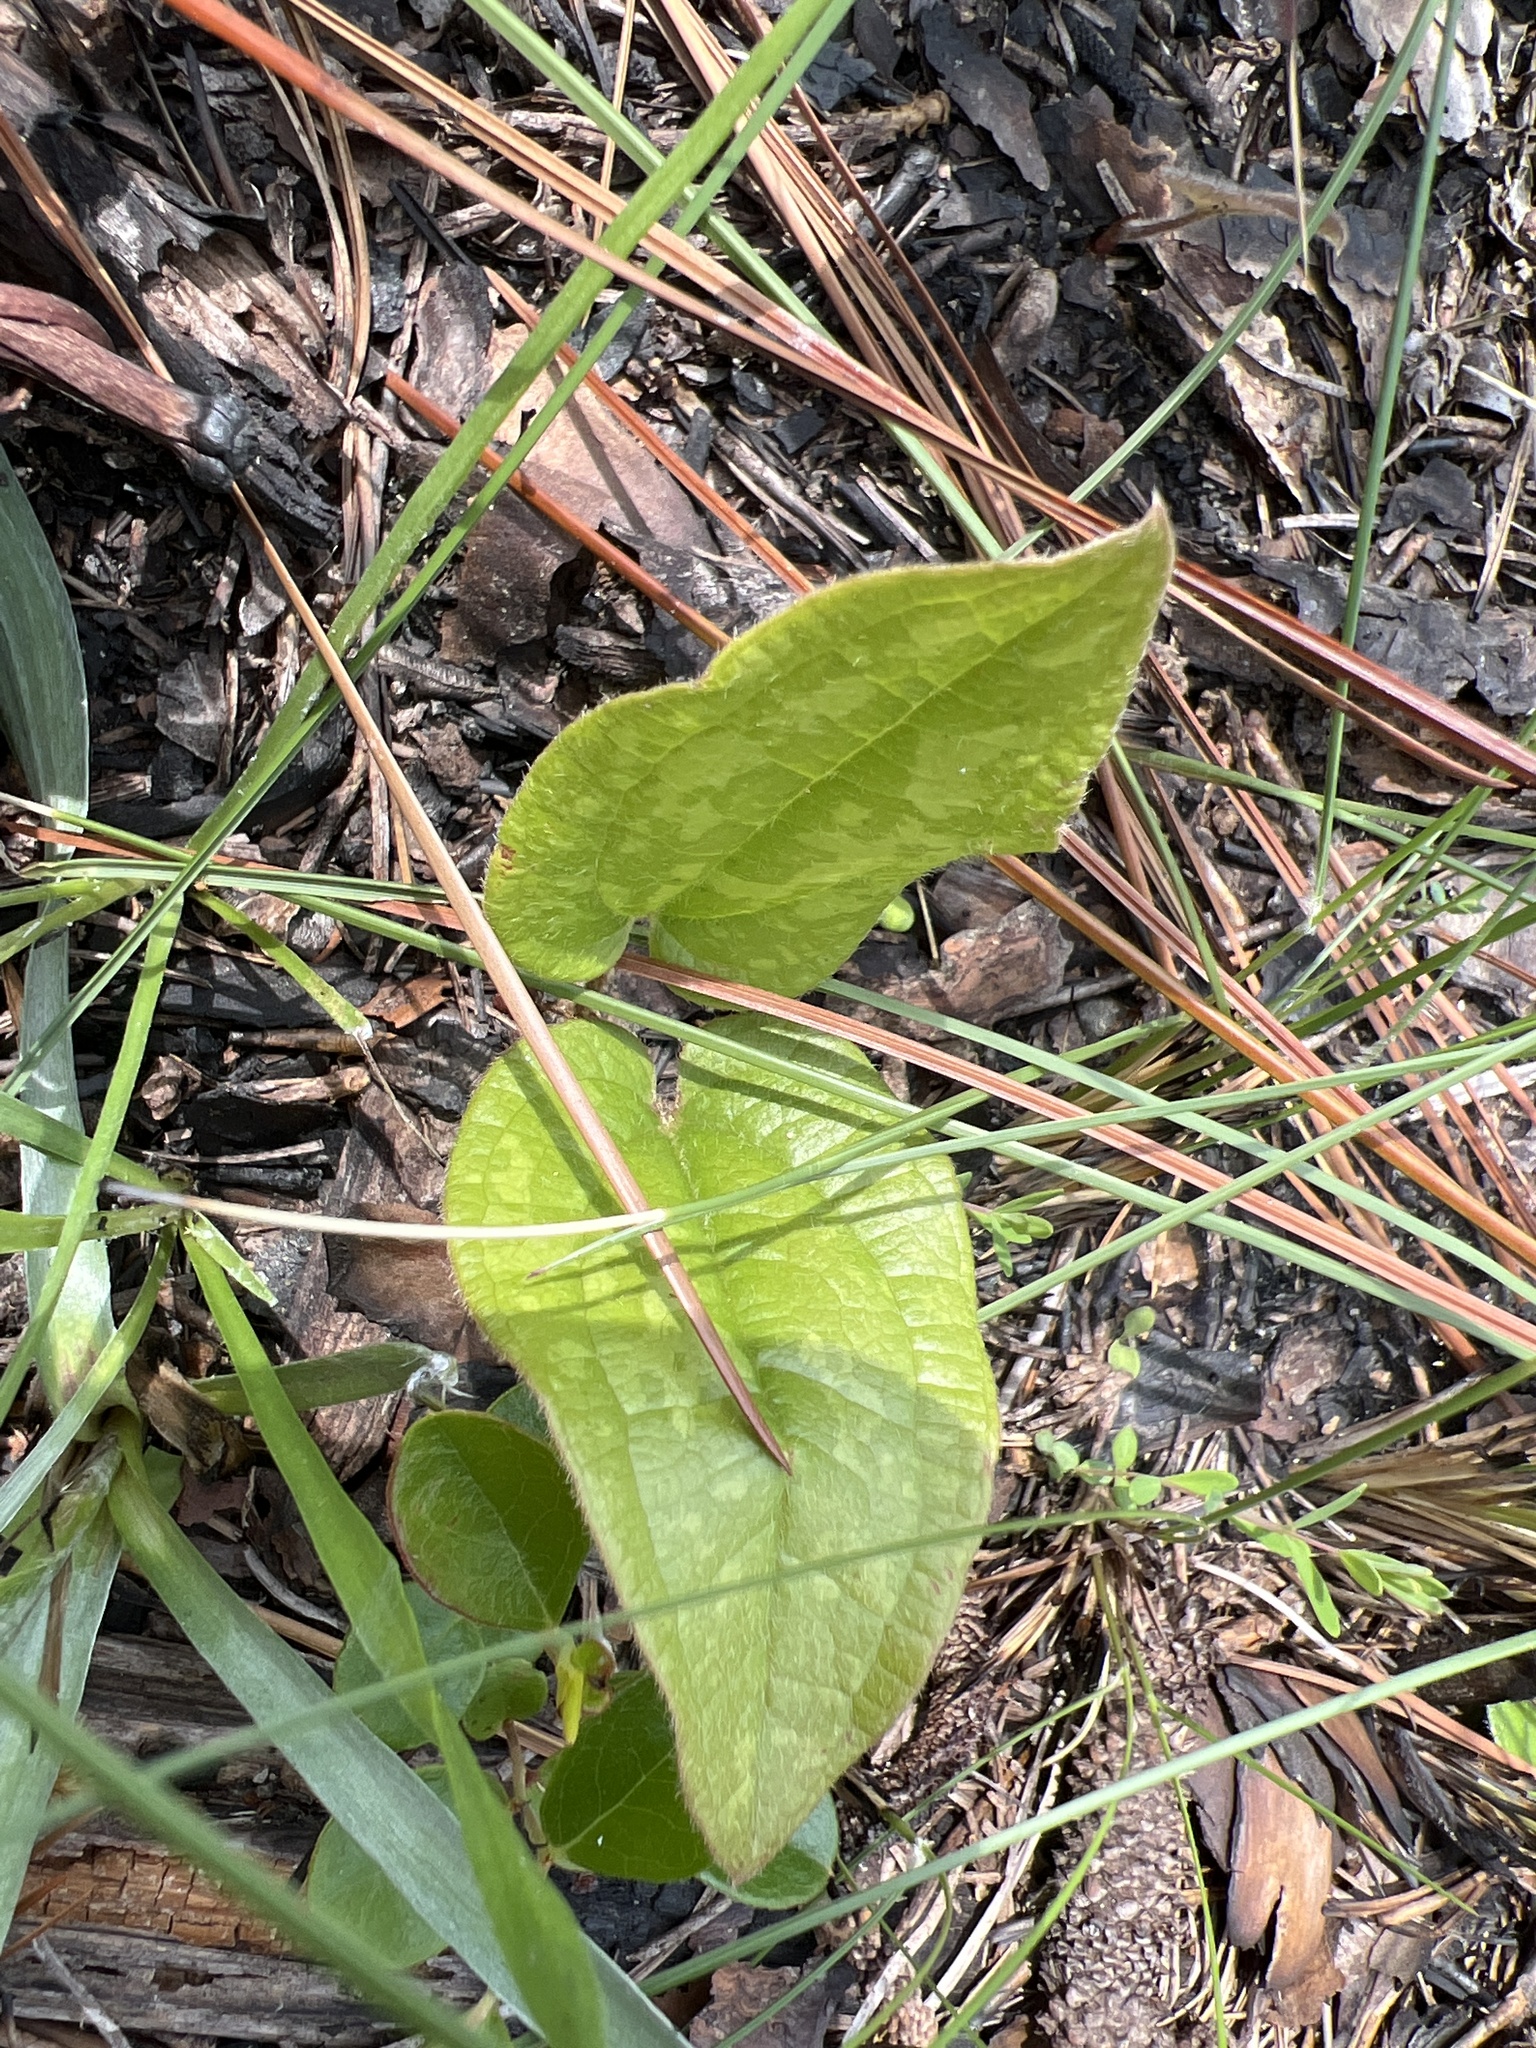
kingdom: Plantae
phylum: Tracheophyta
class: Liliopsida
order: Liliales
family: Smilacaceae
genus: Smilax
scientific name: Smilax pumila
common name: Sarsaparilla-vine
